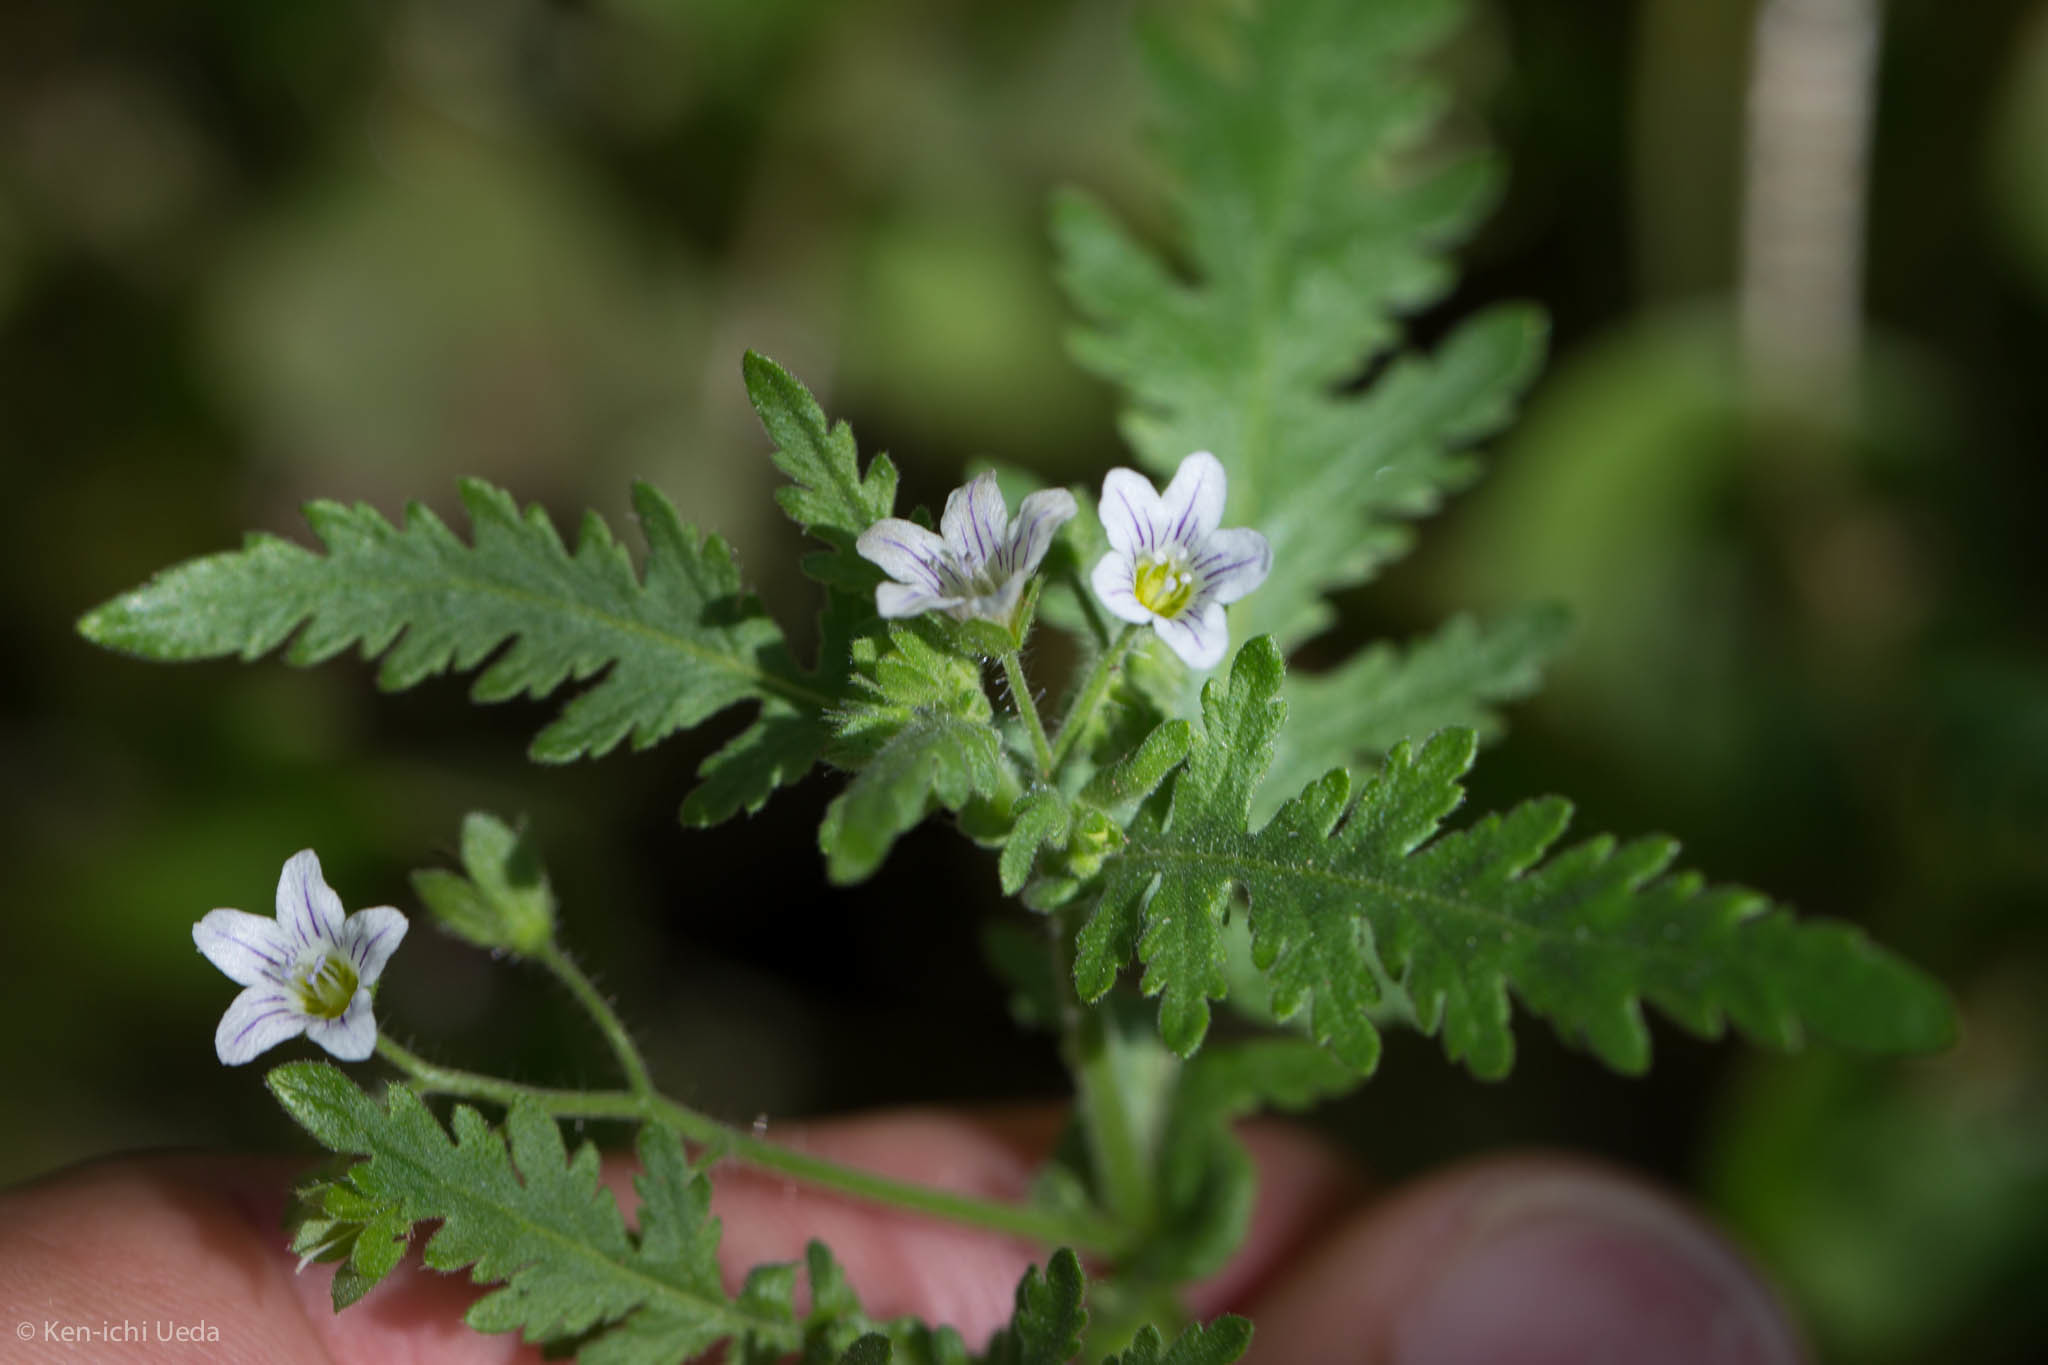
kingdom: Plantae
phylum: Tracheophyta
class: Magnoliopsida
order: Boraginales
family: Hydrophyllaceae
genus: Eucrypta
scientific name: Eucrypta chrysanthemifolia
